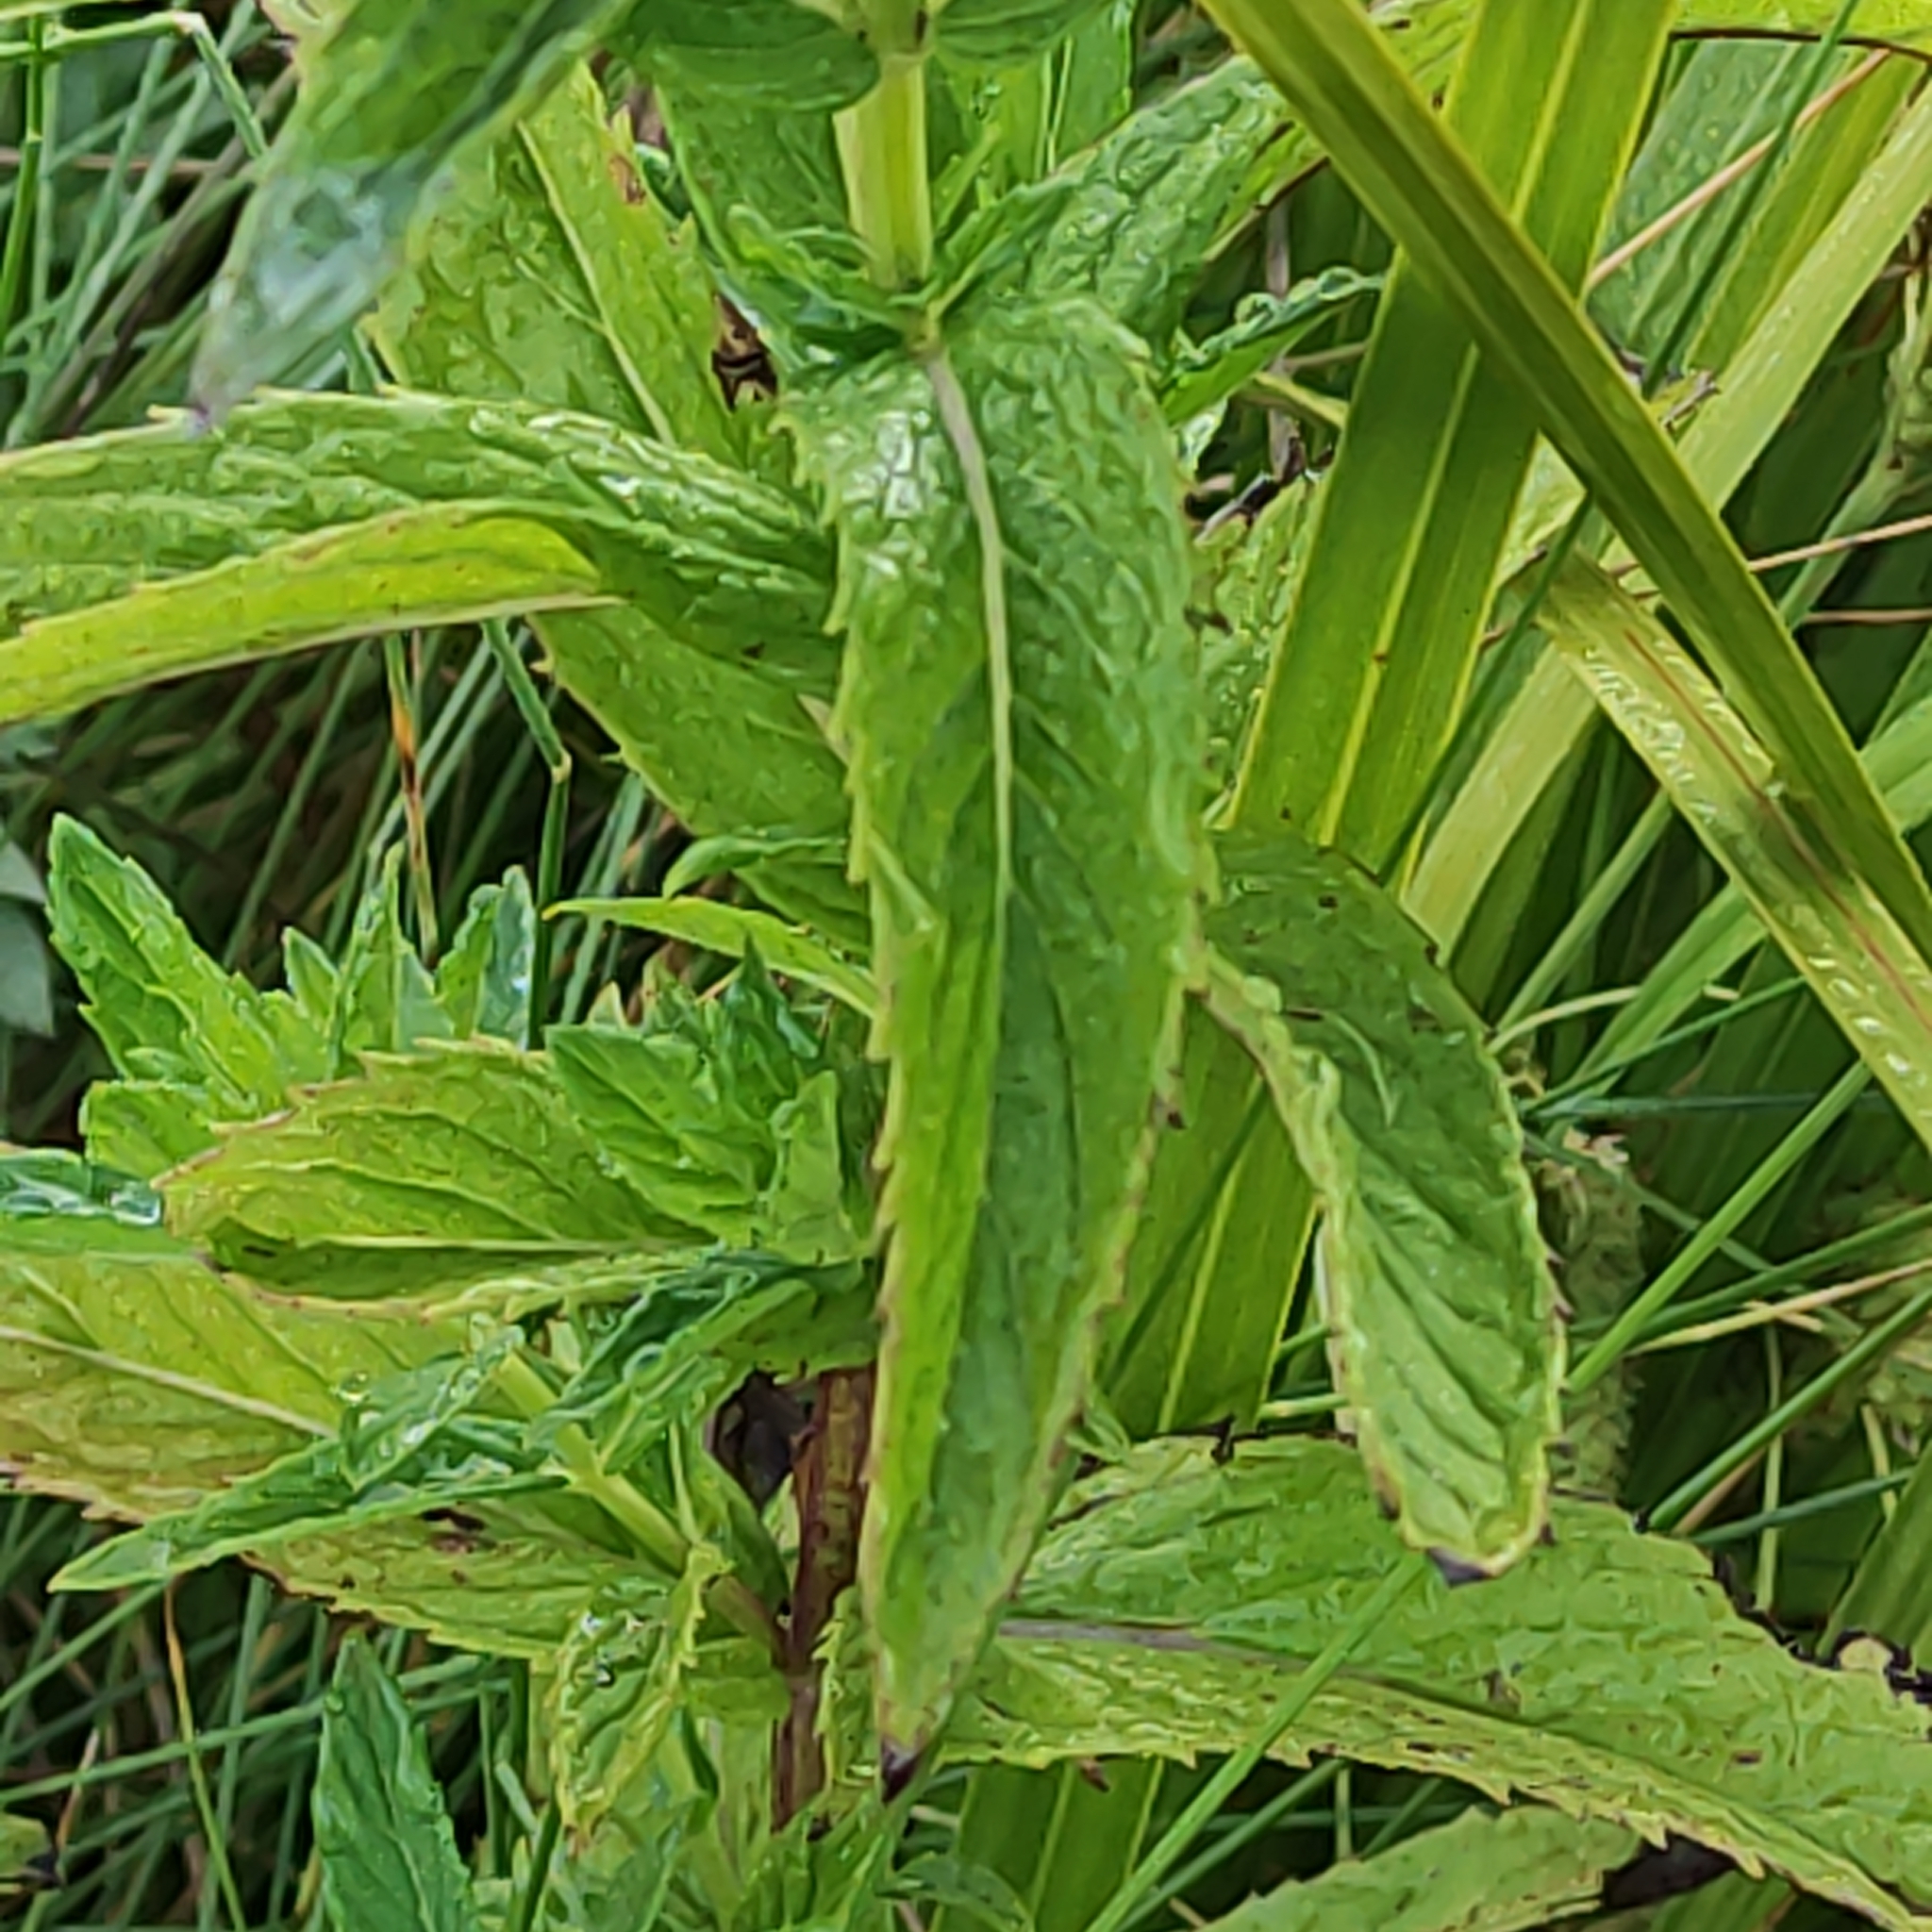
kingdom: Plantae
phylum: Tracheophyta
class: Magnoliopsida
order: Lamiales
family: Lamiaceae
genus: Mentha
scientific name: Mentha spicata
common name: Spearmint
